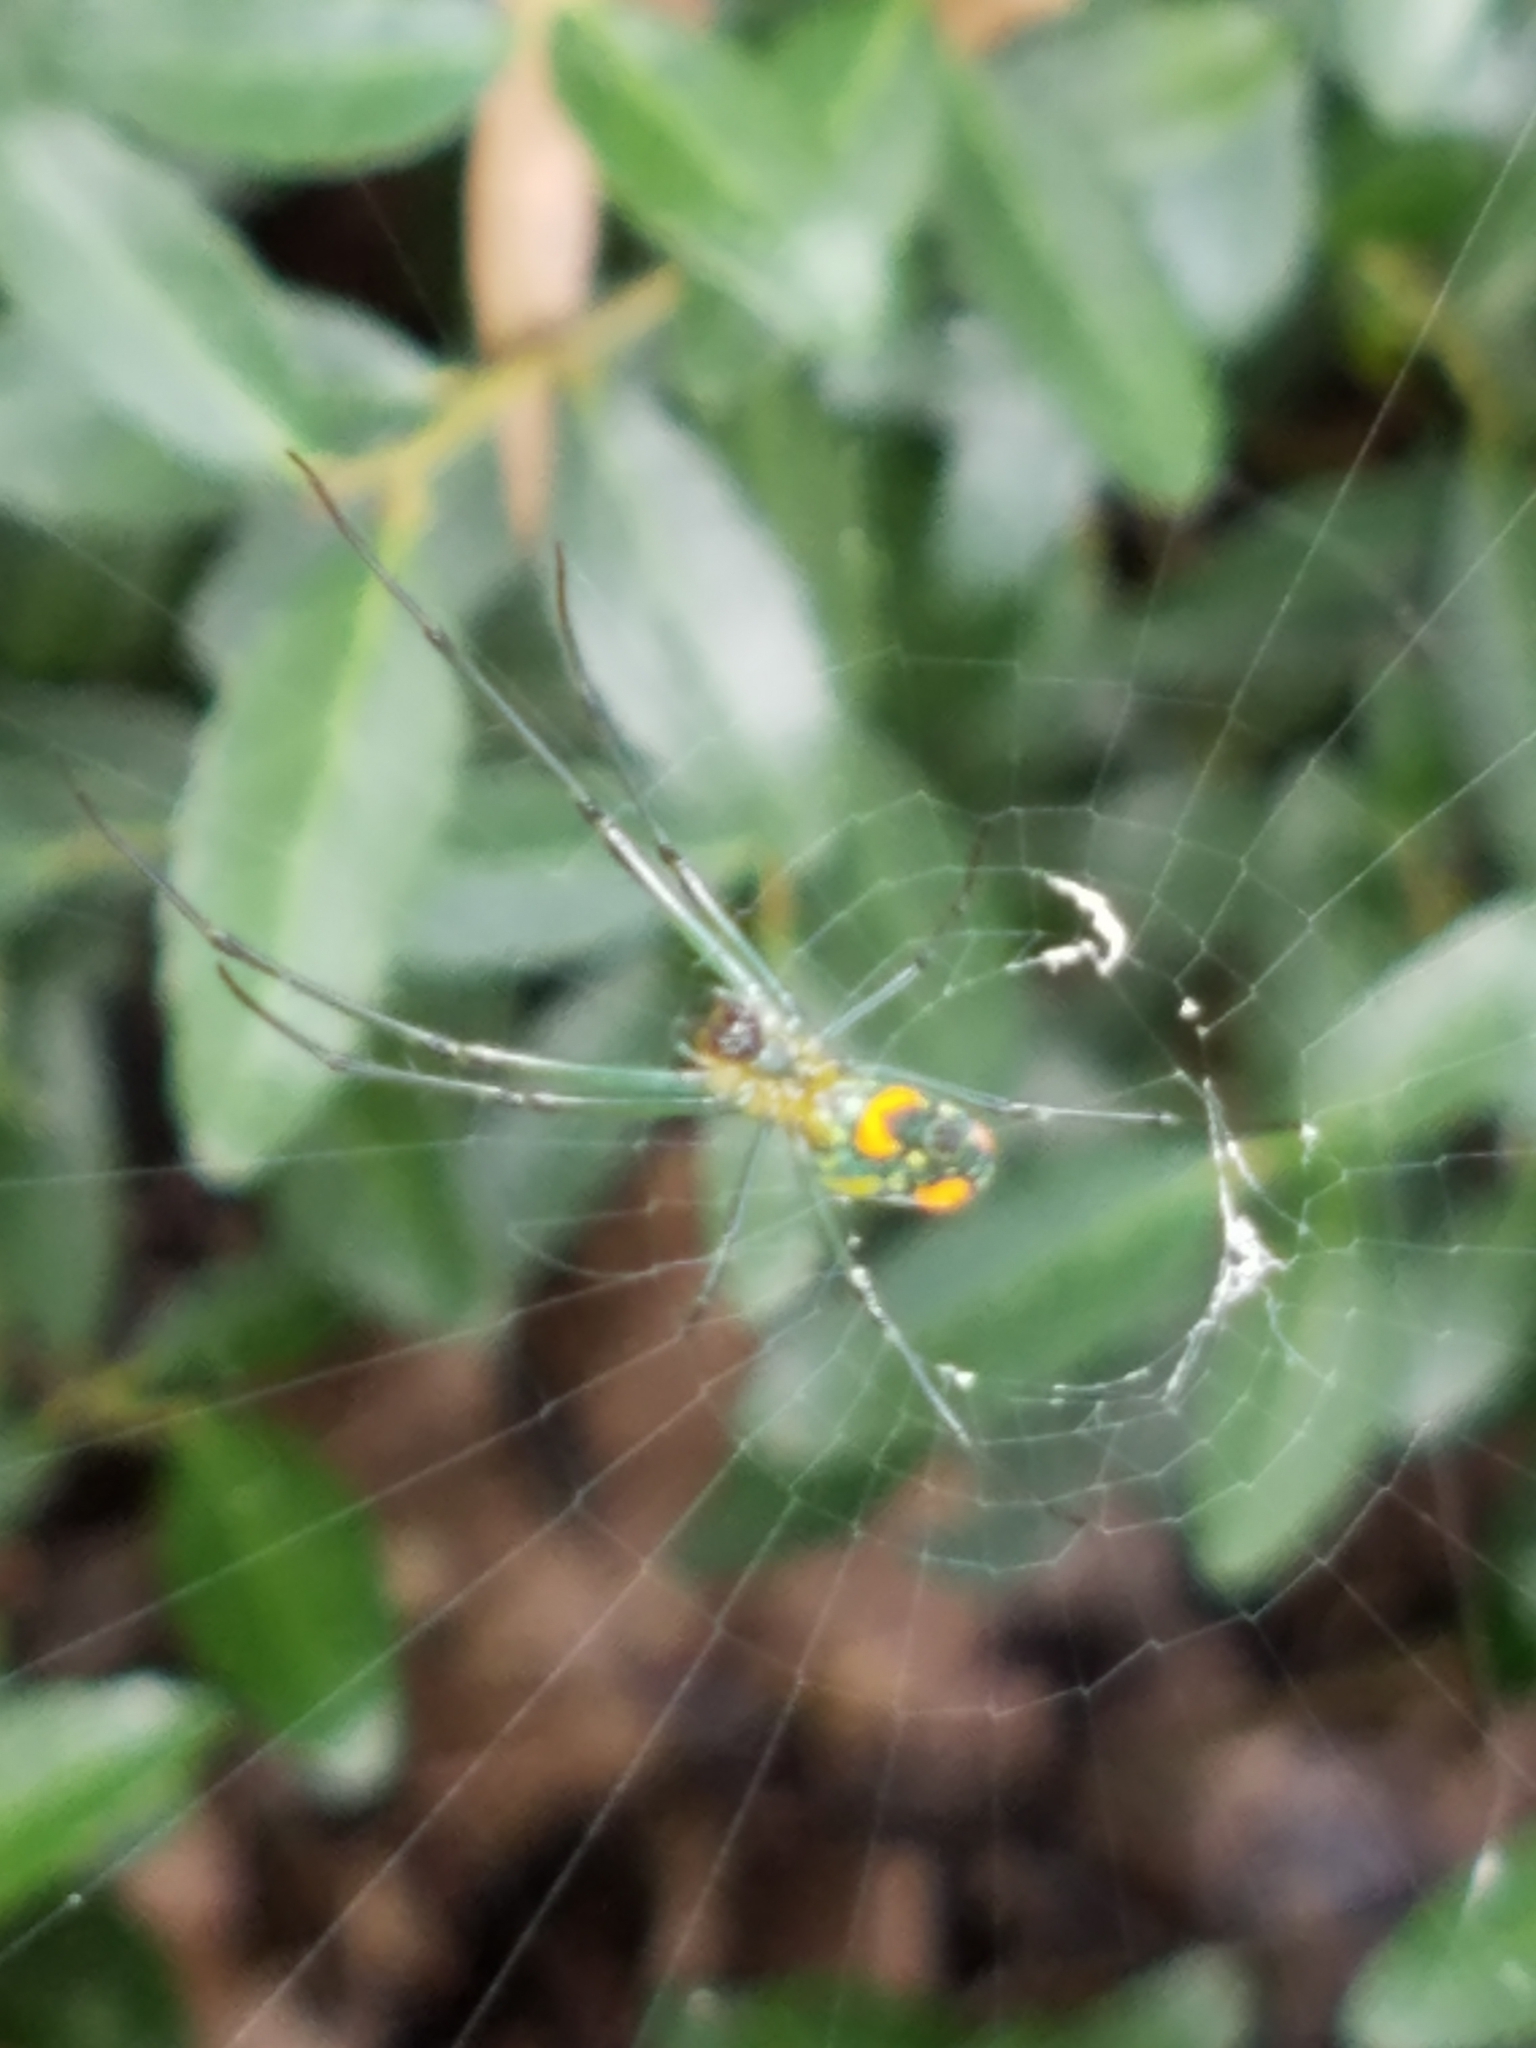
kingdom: Animalia
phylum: Arthropoda
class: Arachnida
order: Araneae
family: Tetragnathidae
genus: Leucauge
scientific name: Leucauge argyrobapta
